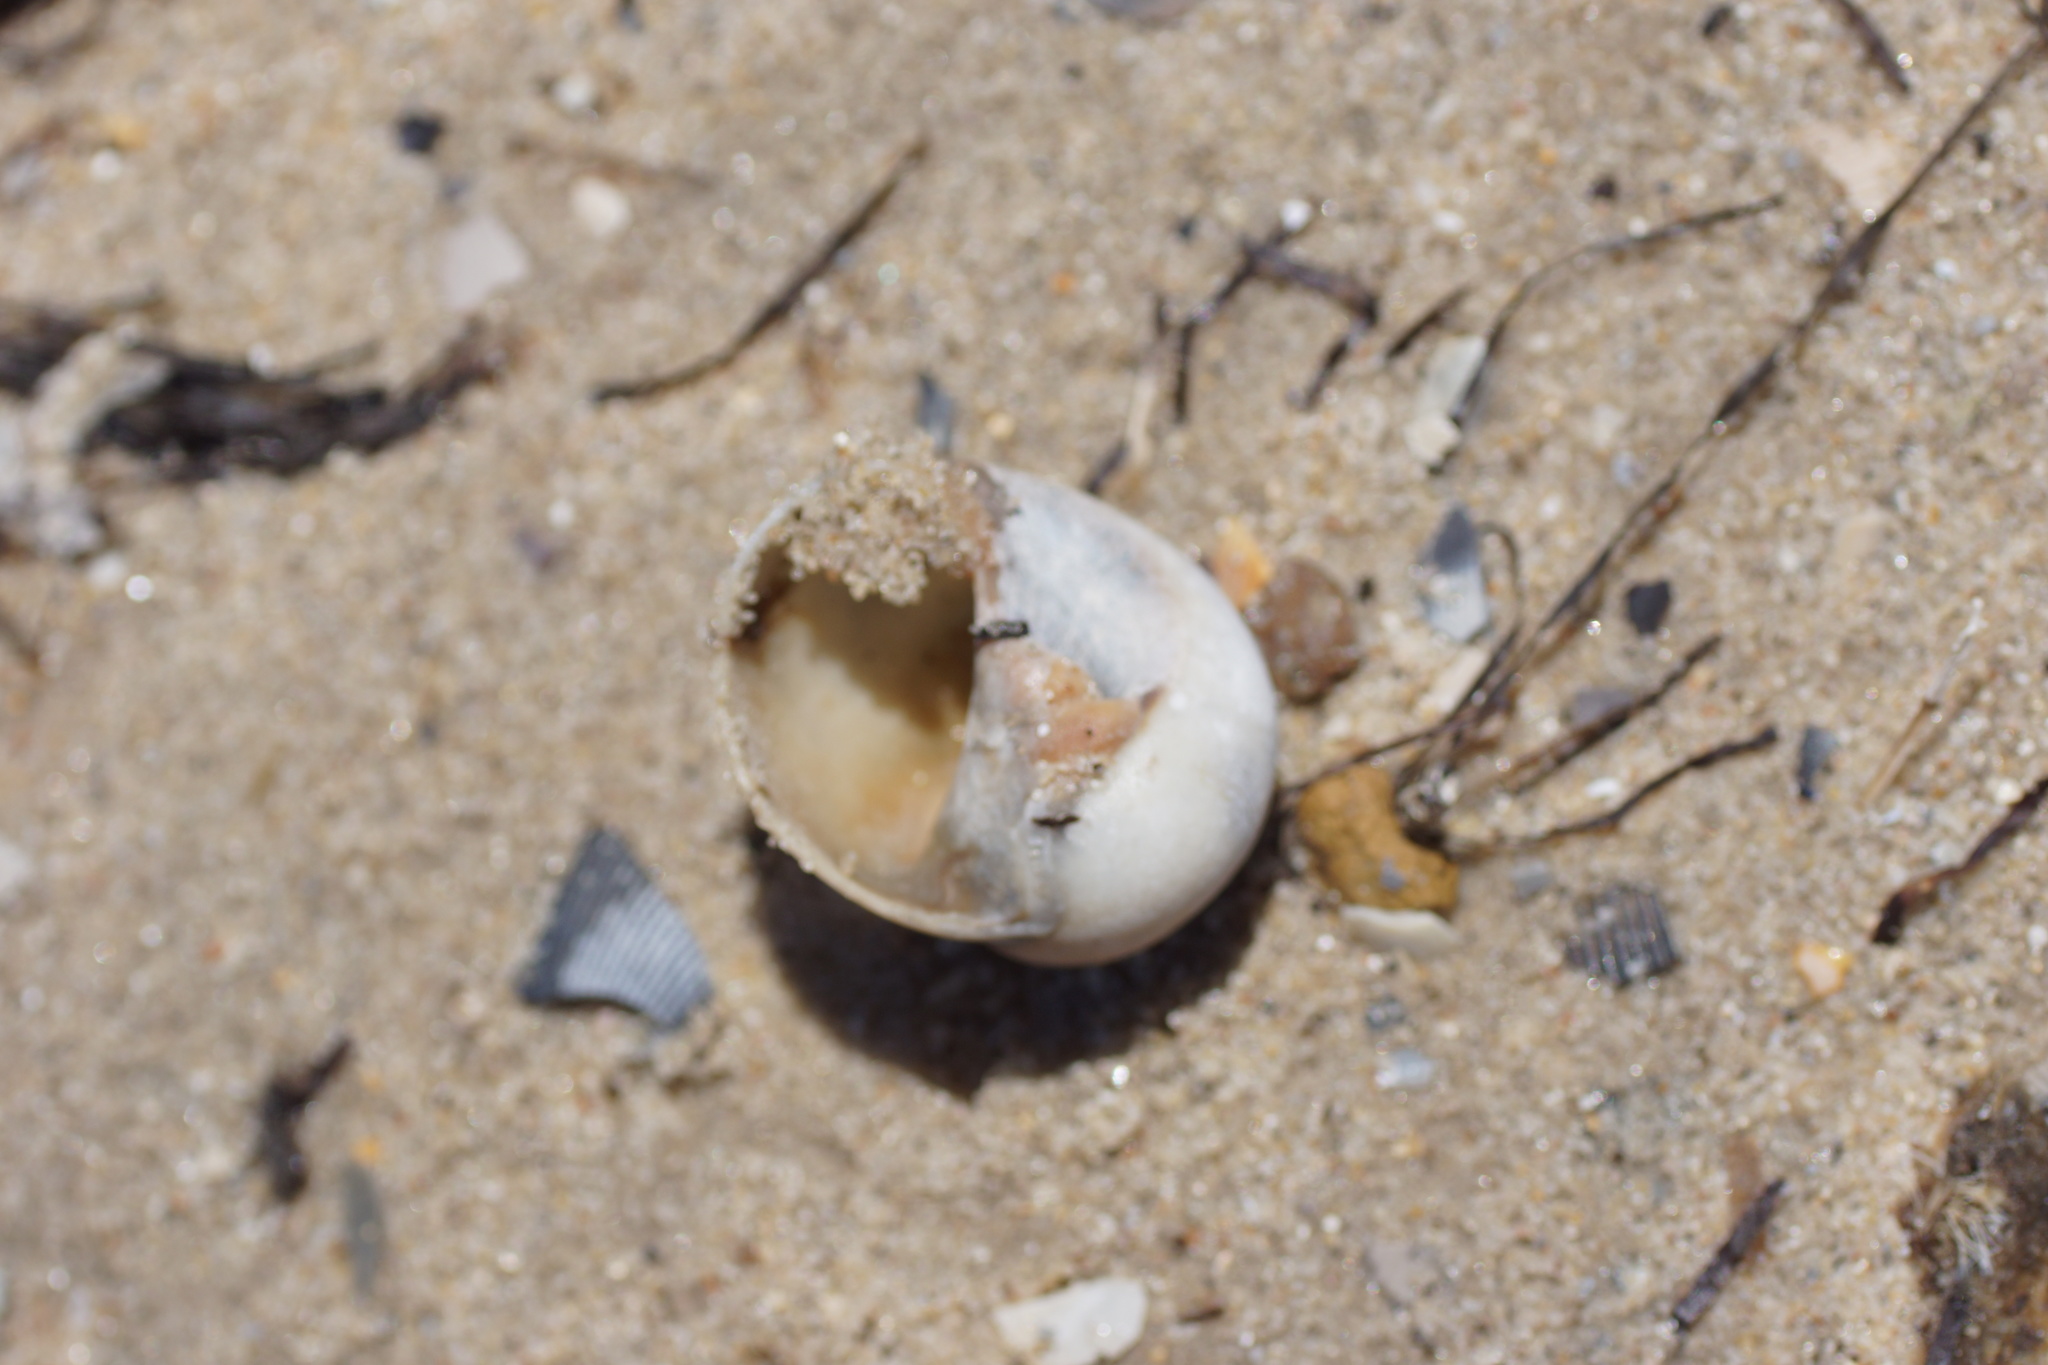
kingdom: Animalia
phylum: Mollusca
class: Gastropoda
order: Littorinimorpha
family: Naticidae
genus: Neverita
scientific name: Neverita didyma
